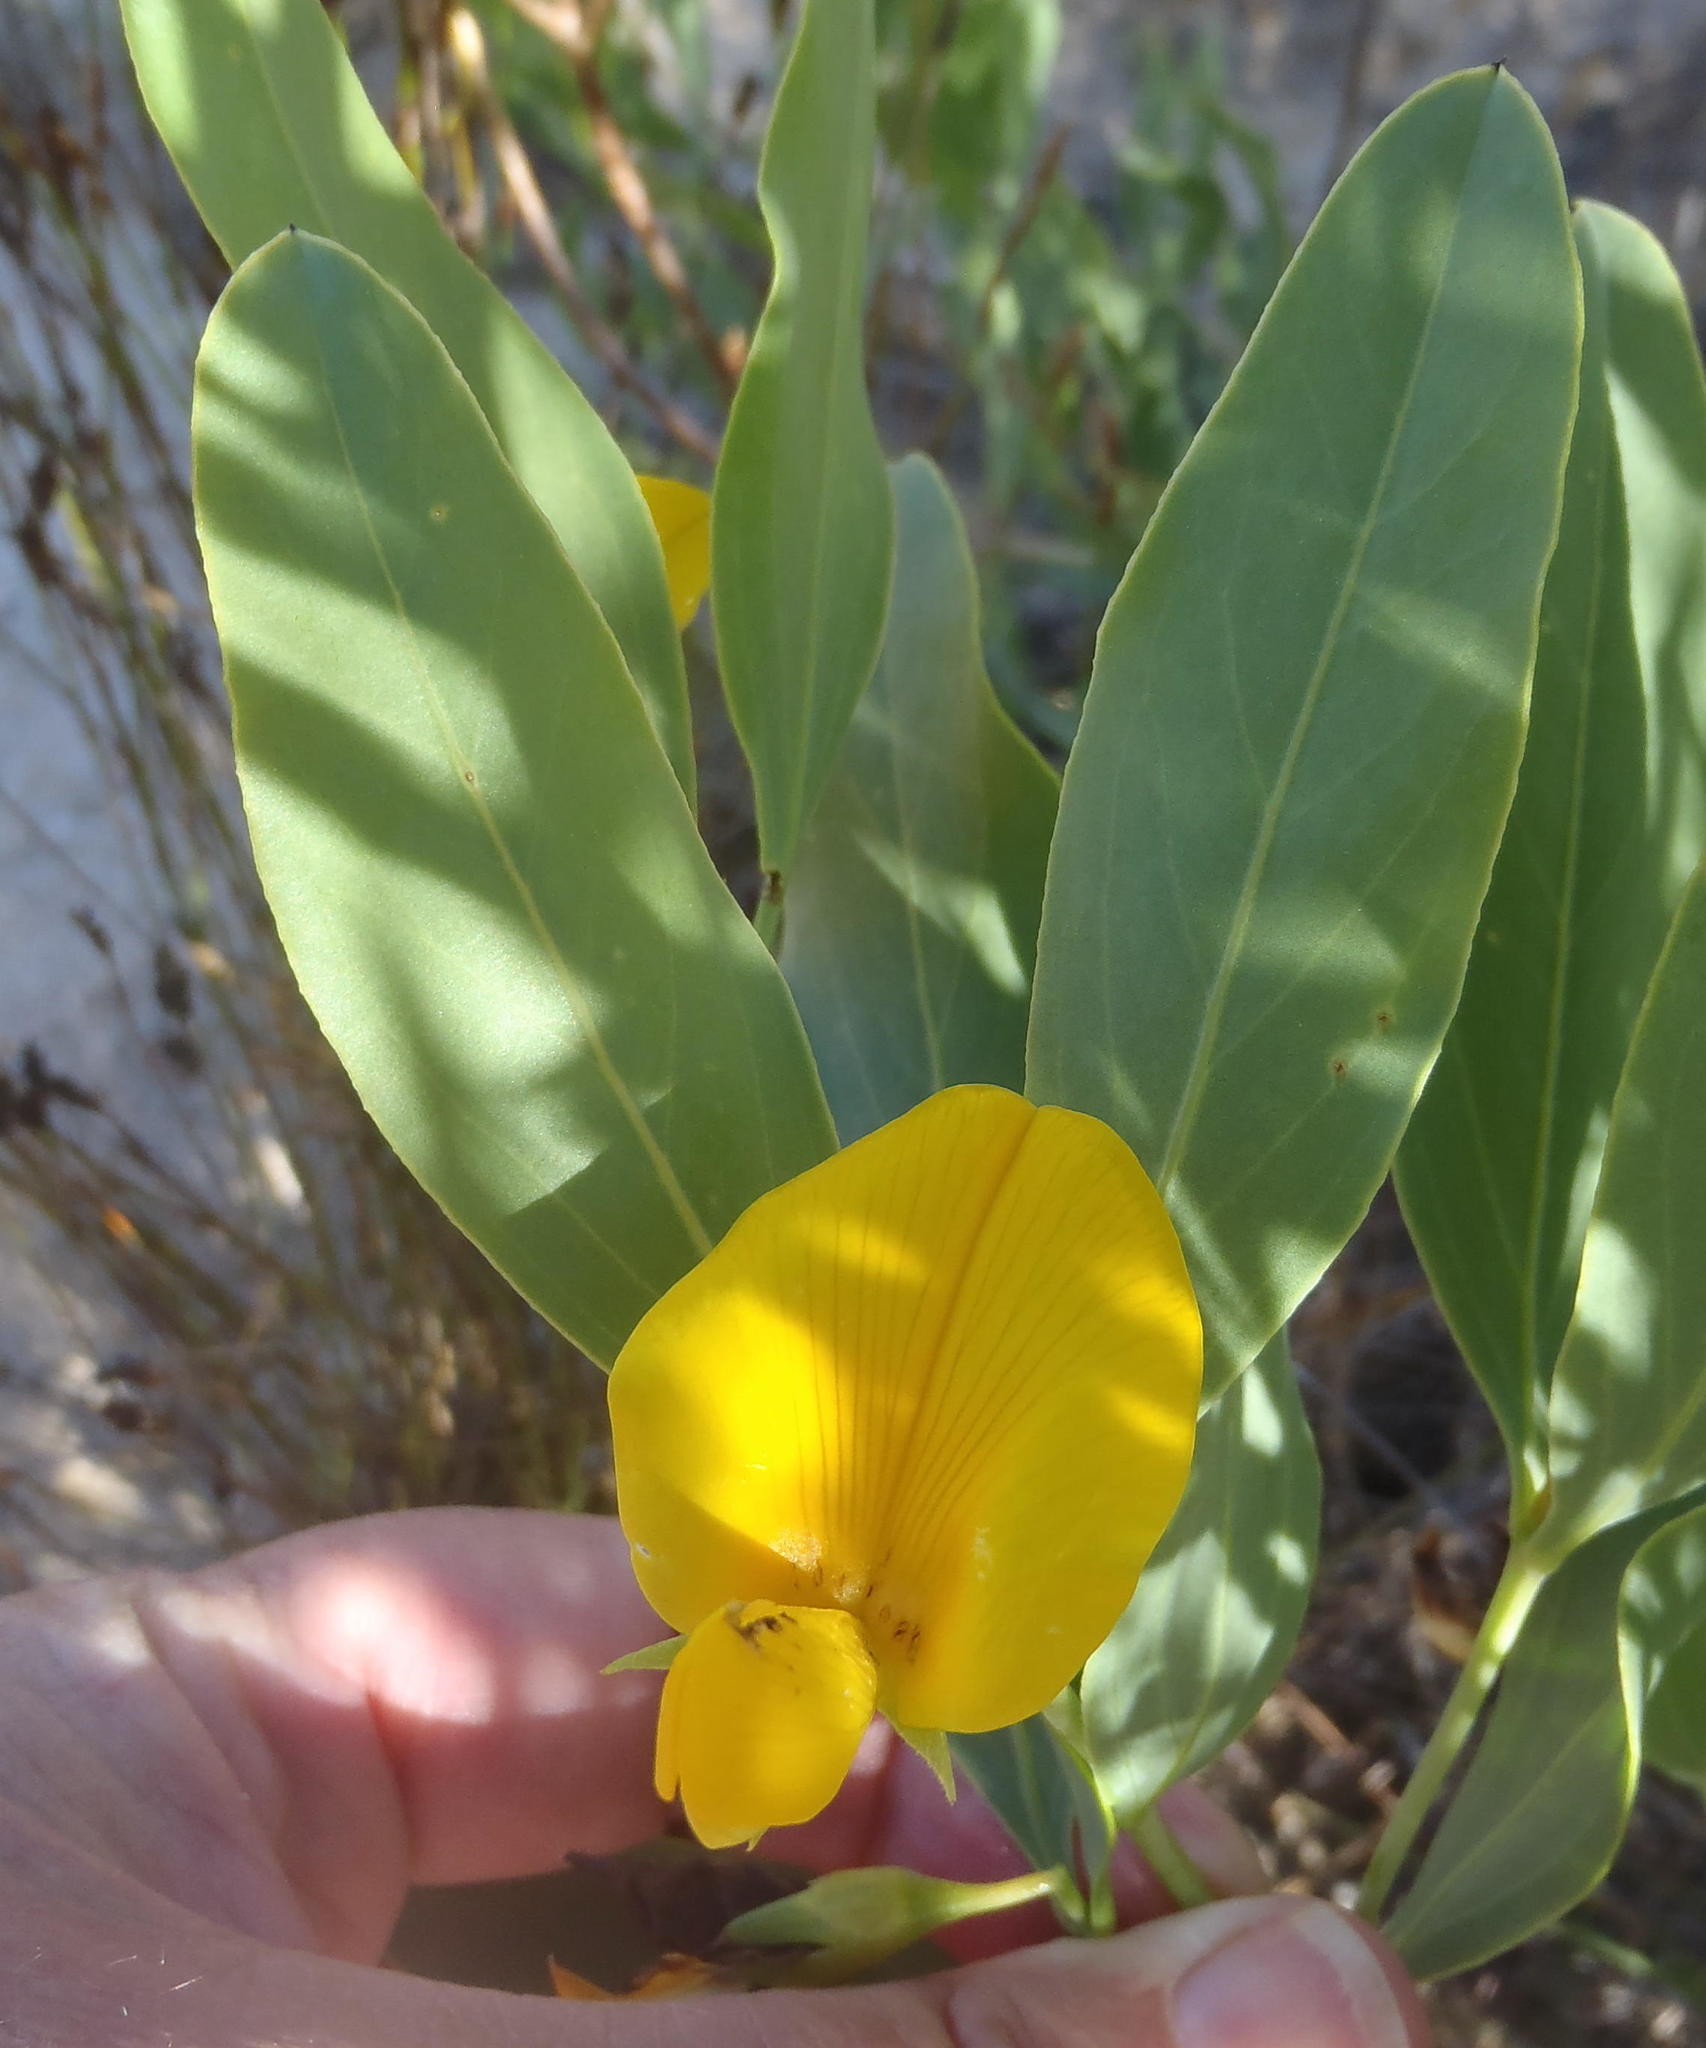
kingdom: Plantae
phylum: Tracheophyta
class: Magnoliopsida
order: Fabales
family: Fabaceae
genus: Rafnia
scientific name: Rafnia elliptica
